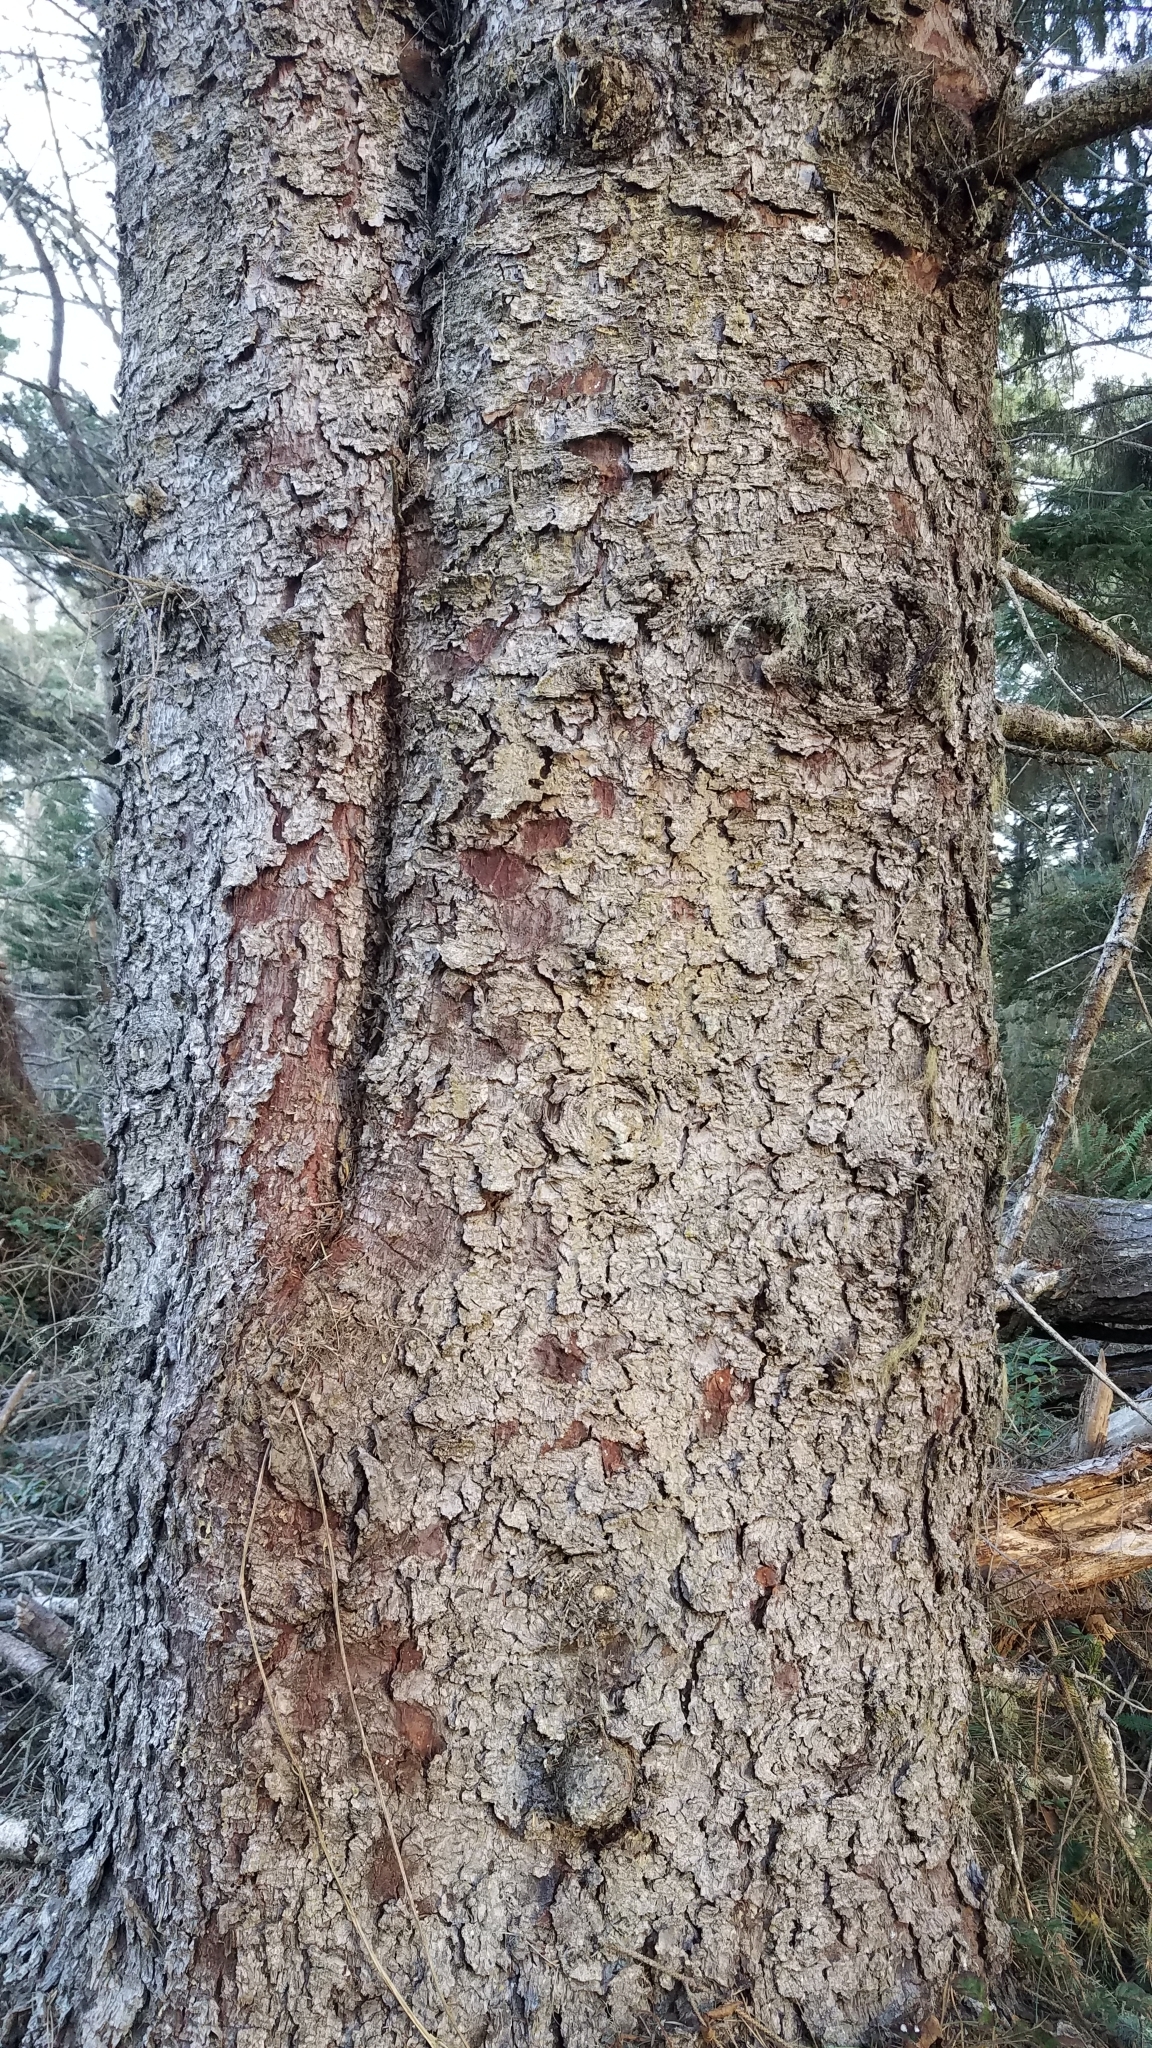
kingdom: Plantae
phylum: Tracheophyta
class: Pinopsida
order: Pinales
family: Pinaceae
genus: Picea
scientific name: Picea sitchensis
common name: Sitka spruce
